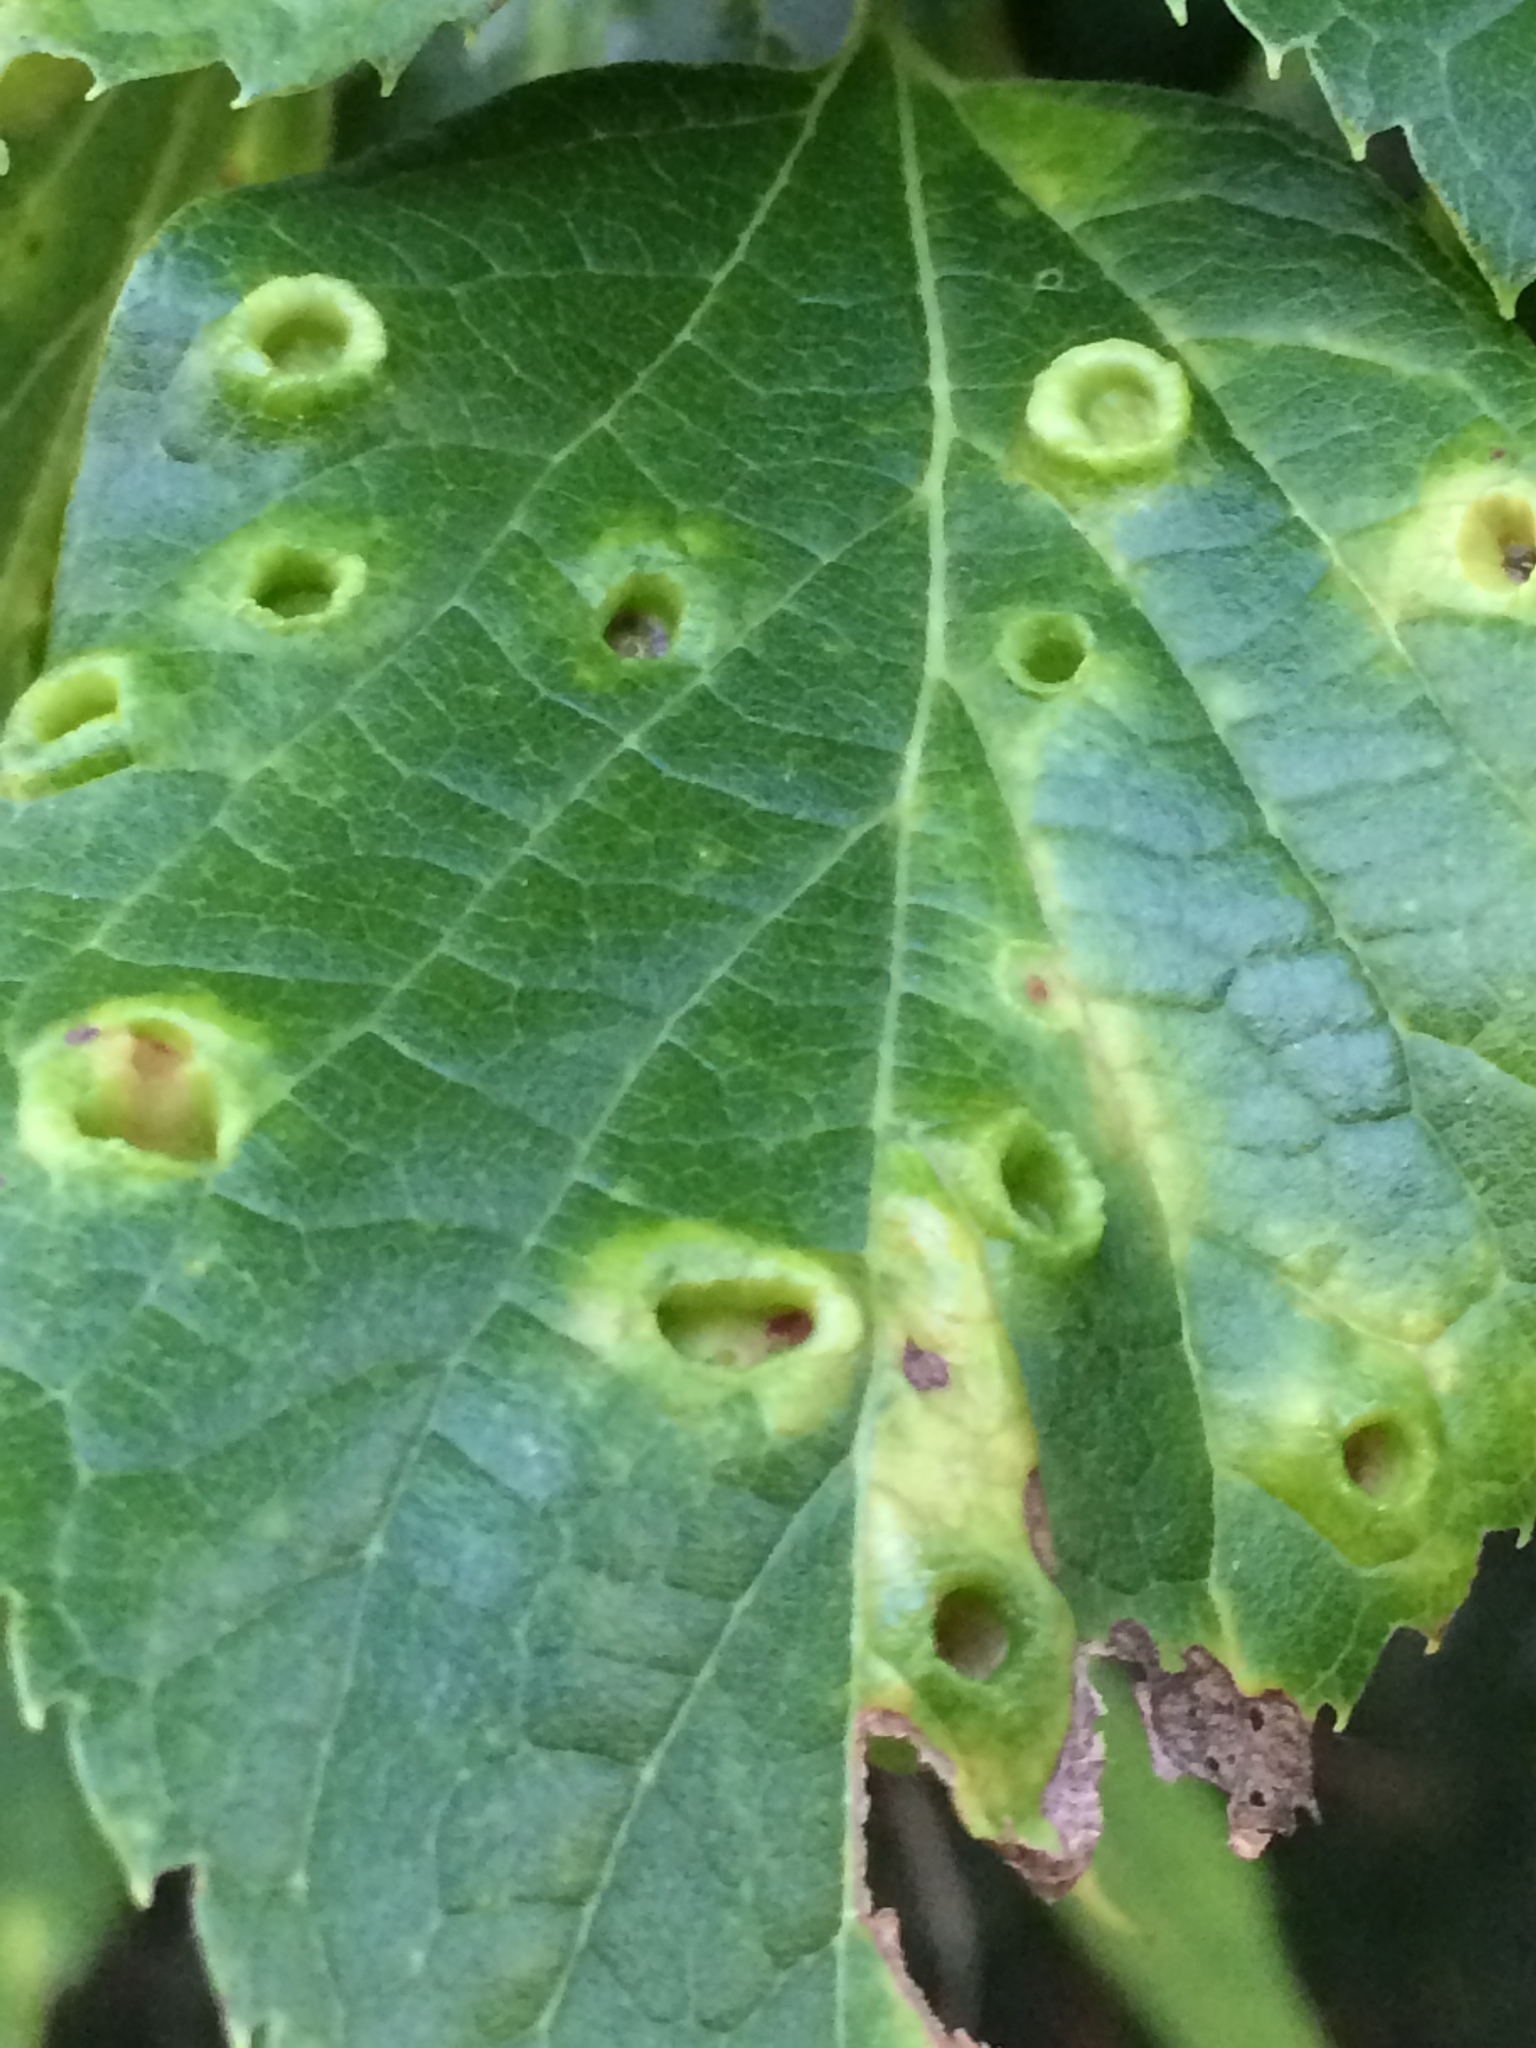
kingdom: Animalia
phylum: Arthropoda
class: Insecta
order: Hemiptera
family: Aphalaridae
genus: Pachypsylla
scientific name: Pachypsylla celtidismamma
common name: Hackberry nipplegall psyllid
